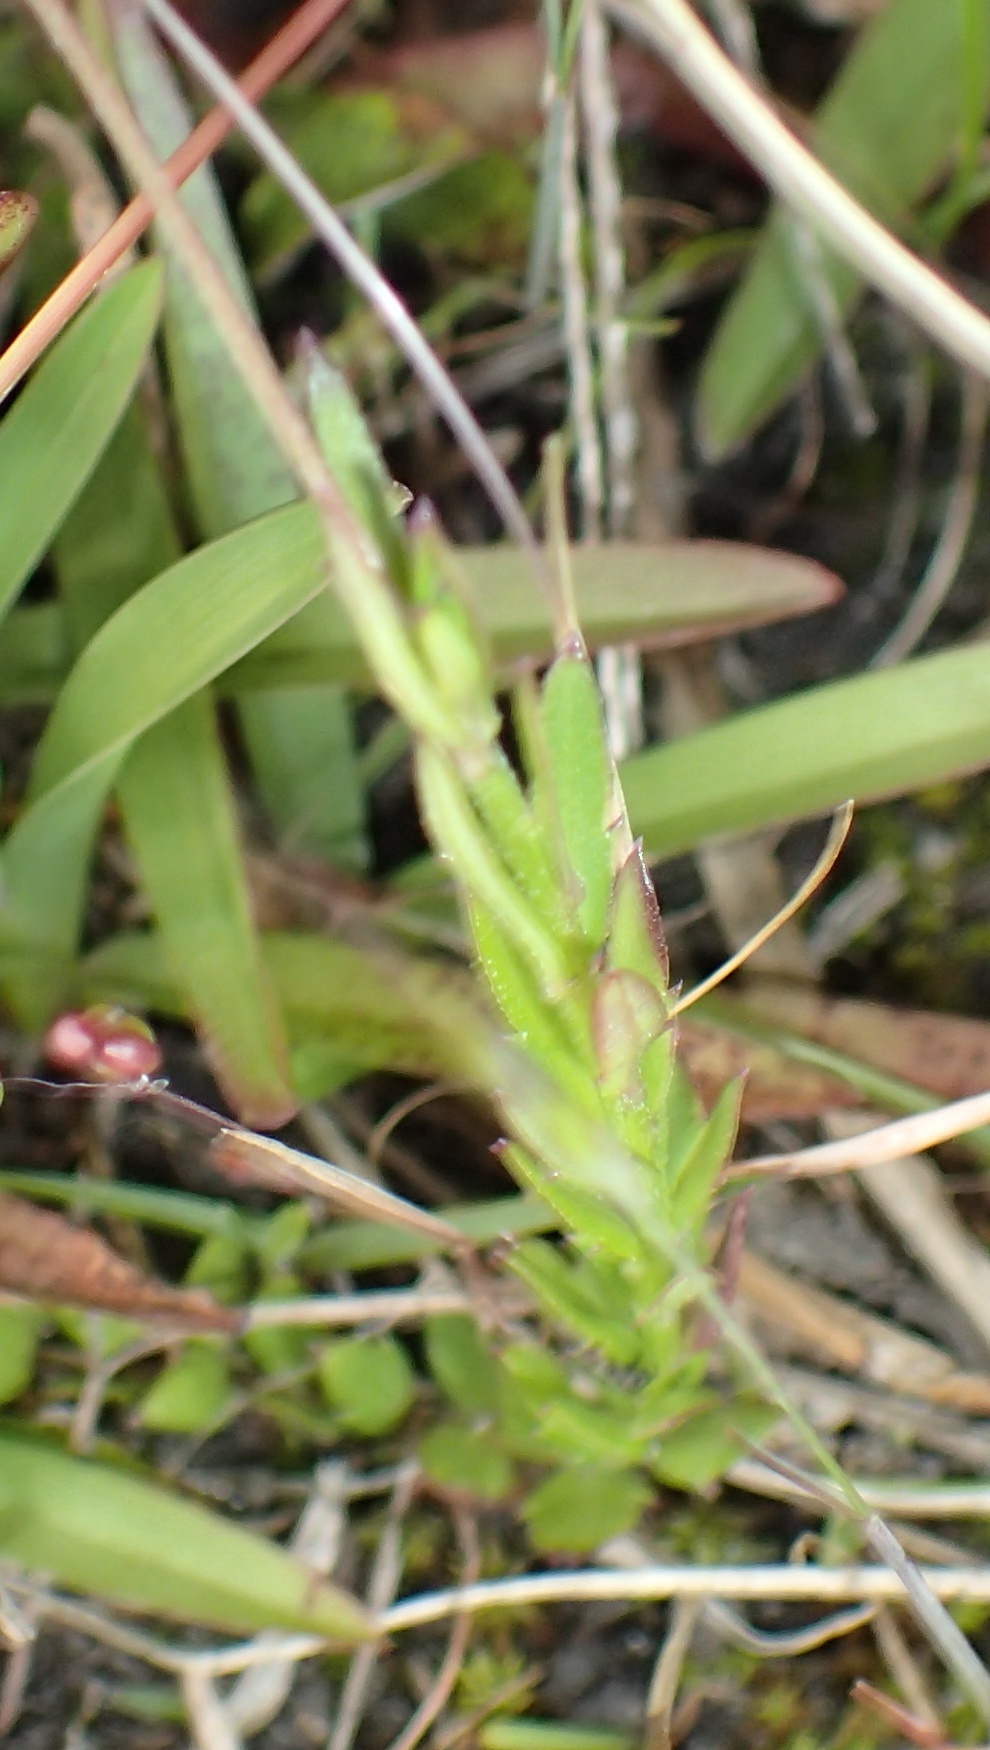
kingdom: Plantae
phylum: Tracheophyta
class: Magnoliopsida
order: Asterales
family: Campanulaceae
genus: Monopsis
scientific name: Monopsis unidentata
